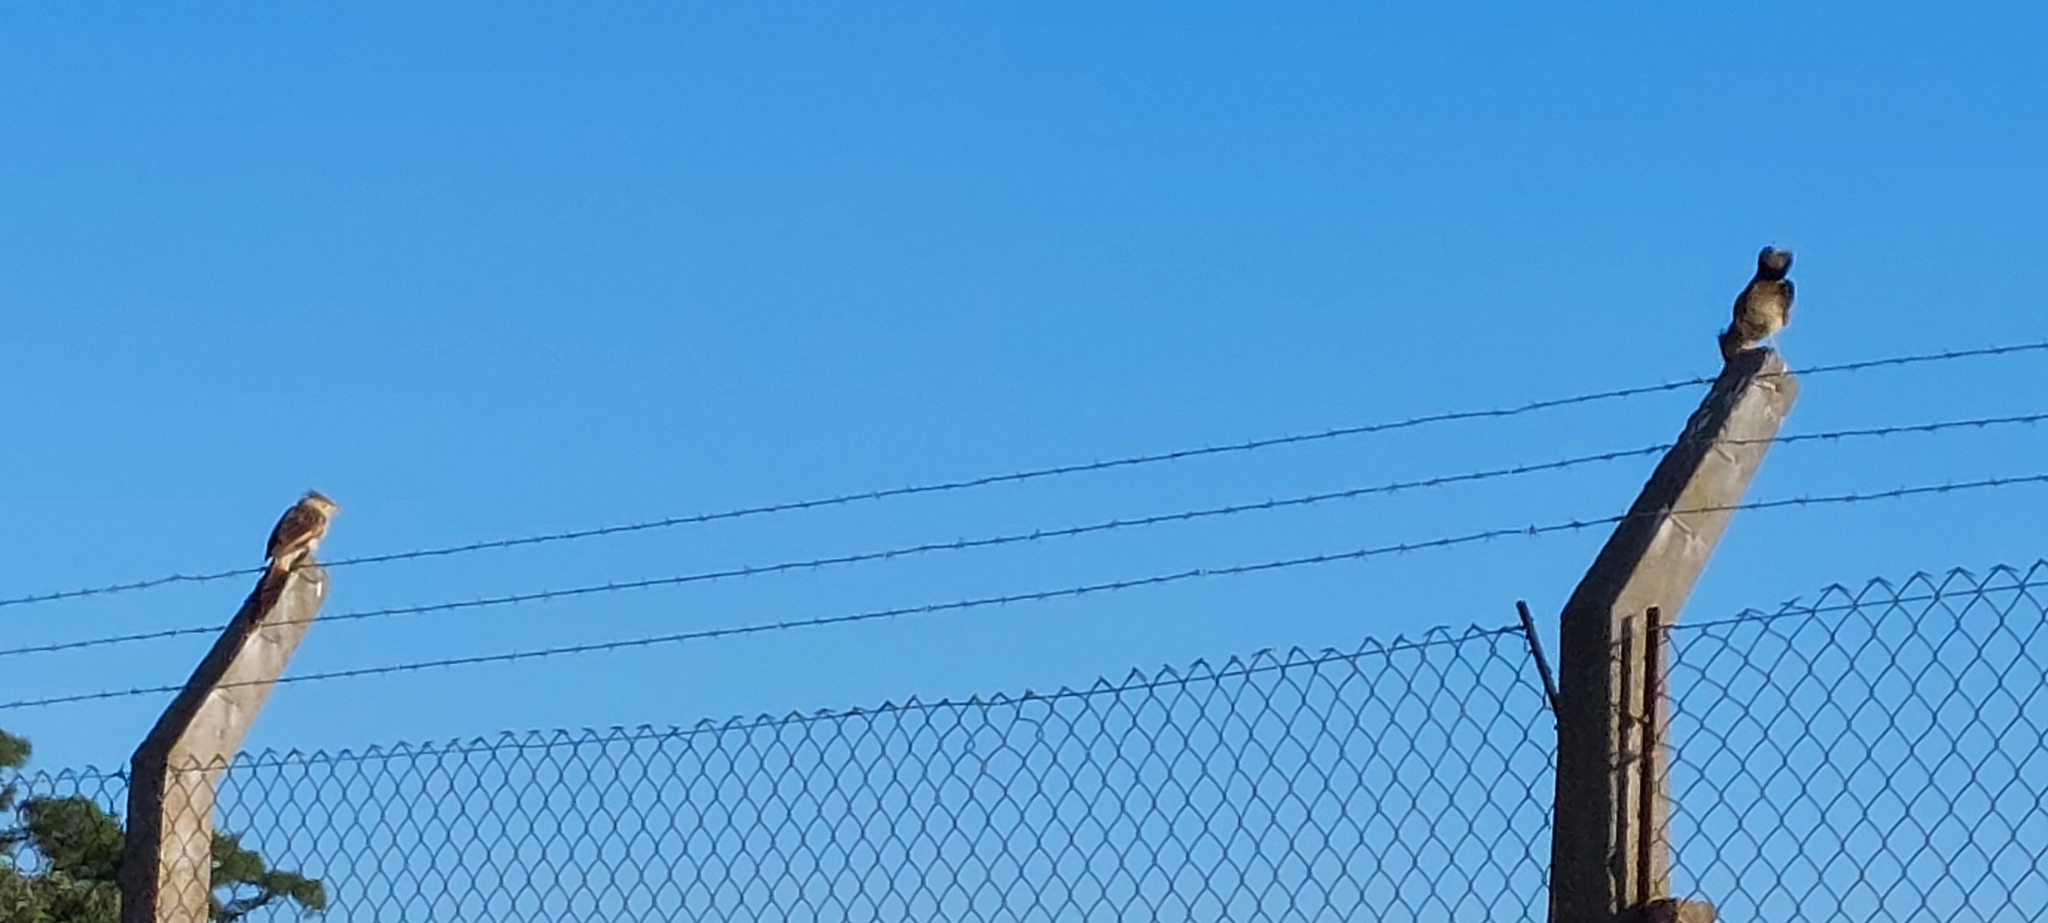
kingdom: Animalia
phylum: Chordata
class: Aves
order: Cuculiformes
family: Cuculidae
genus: Guira
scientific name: Guira guira
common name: Guira cuckoo
